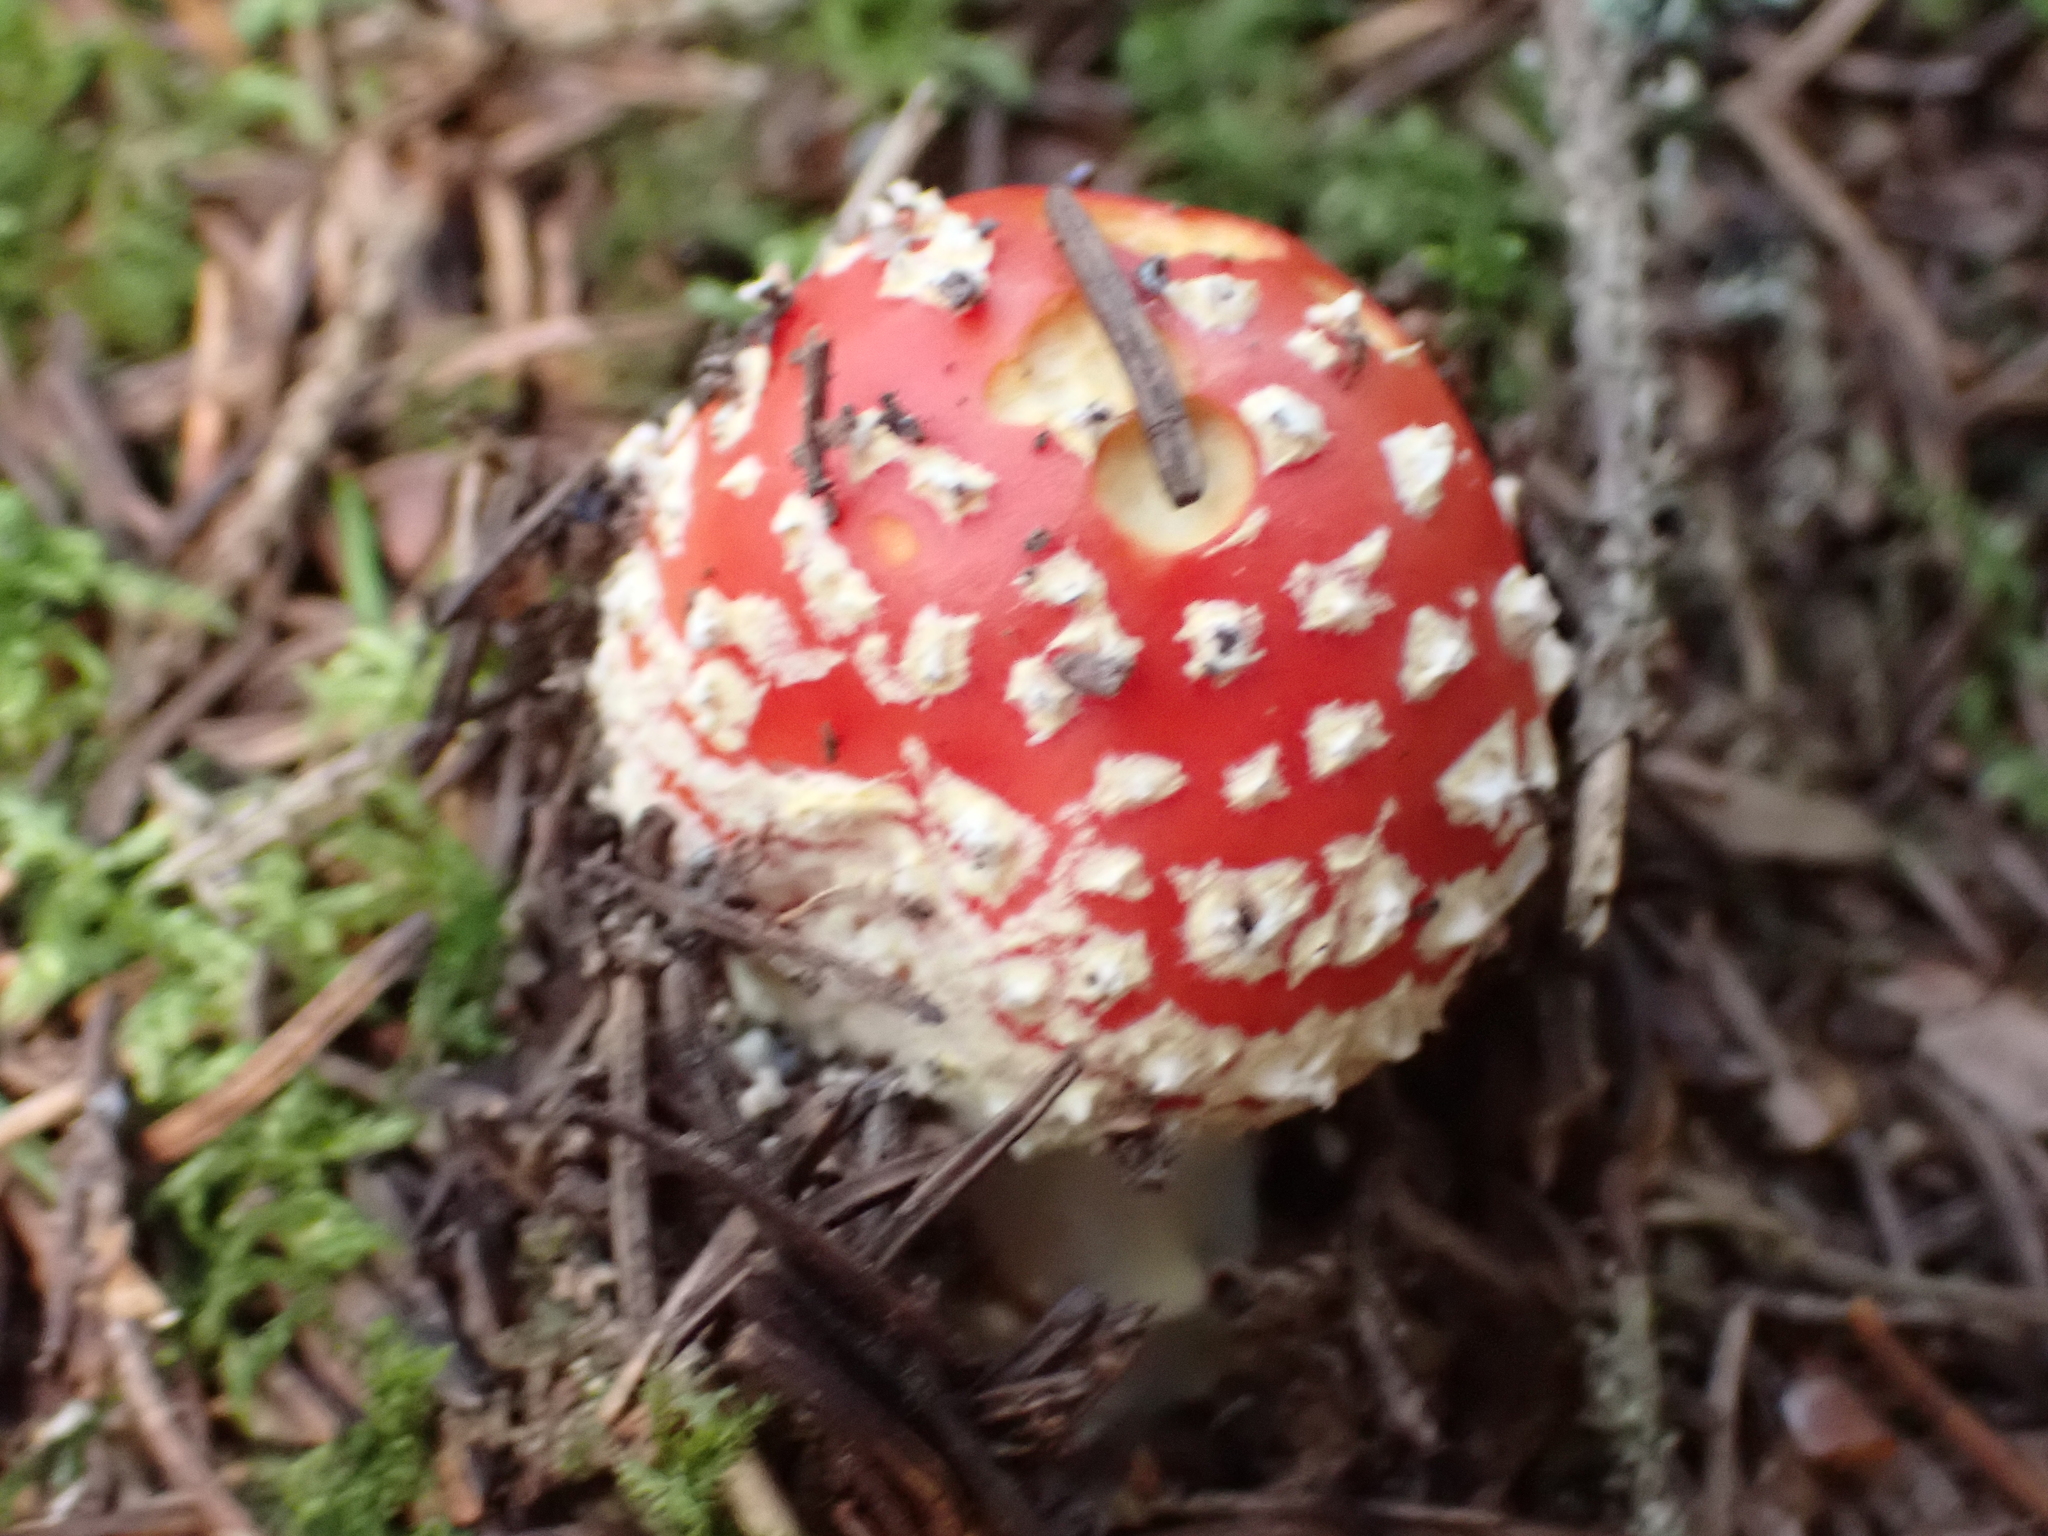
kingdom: Fungi
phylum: Basidiomycota
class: Agaricomycetes
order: Agaricales
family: Amanitaceae
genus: Amanita
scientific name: Amanita muscaria
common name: Fly agaric
